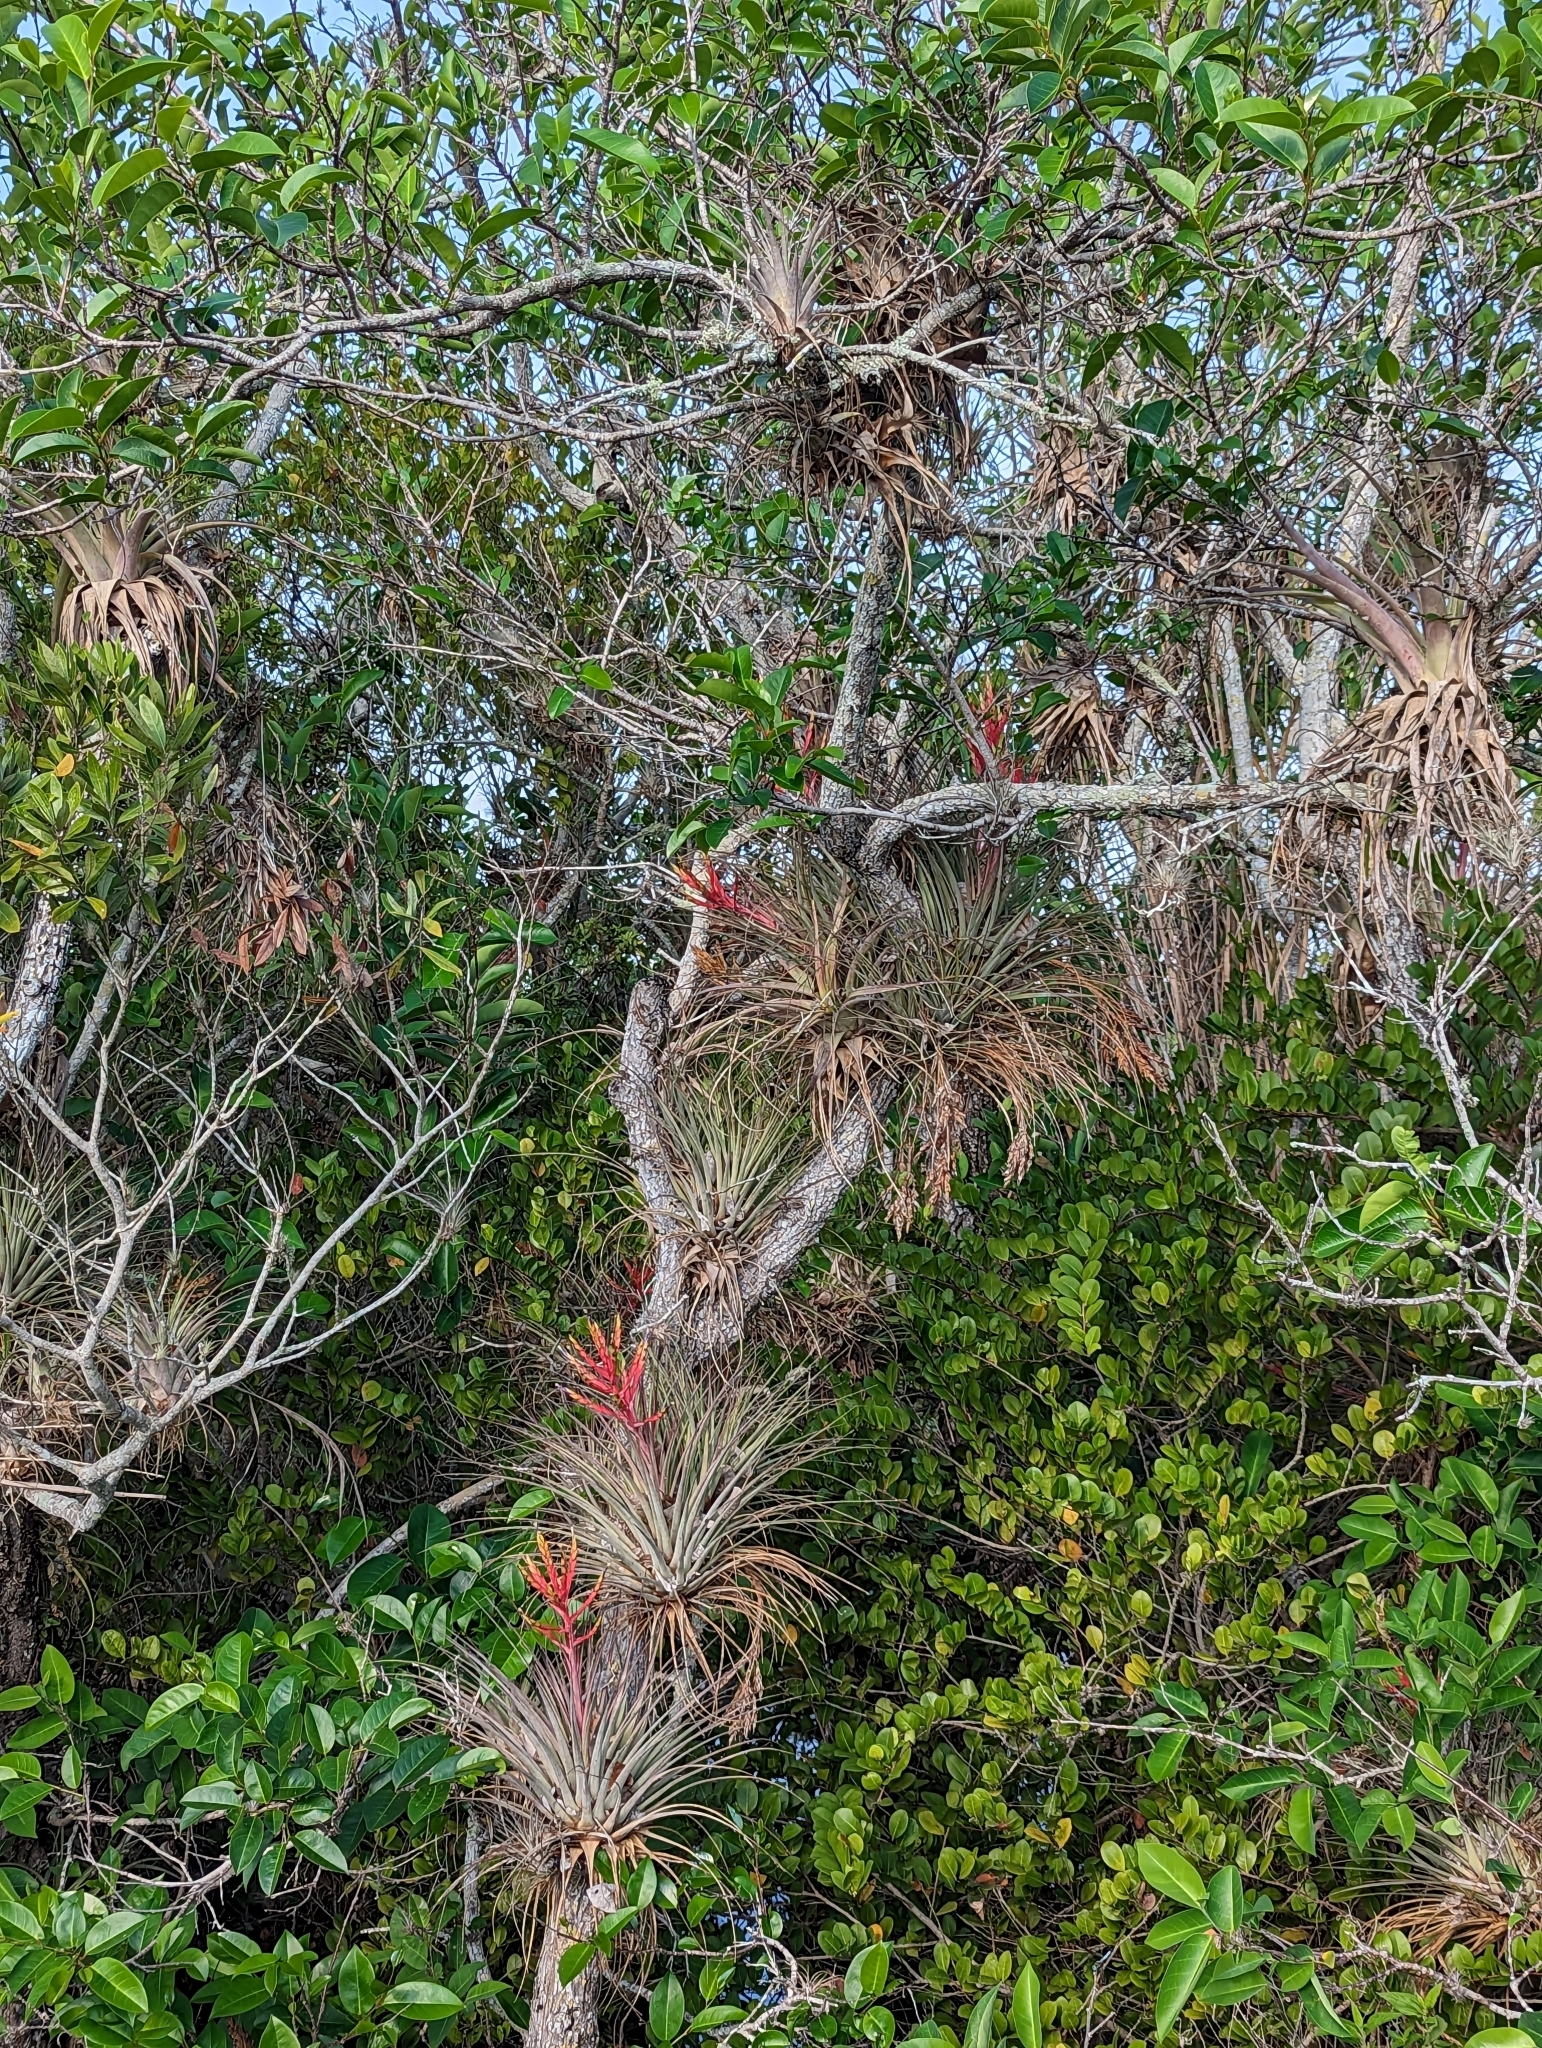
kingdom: Plantae
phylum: Tracheophyta
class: Liliopsida
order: Poales
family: Bromeliaceae
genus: Tillandsia
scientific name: Tillandsia fasciculata
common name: Giant airplant
